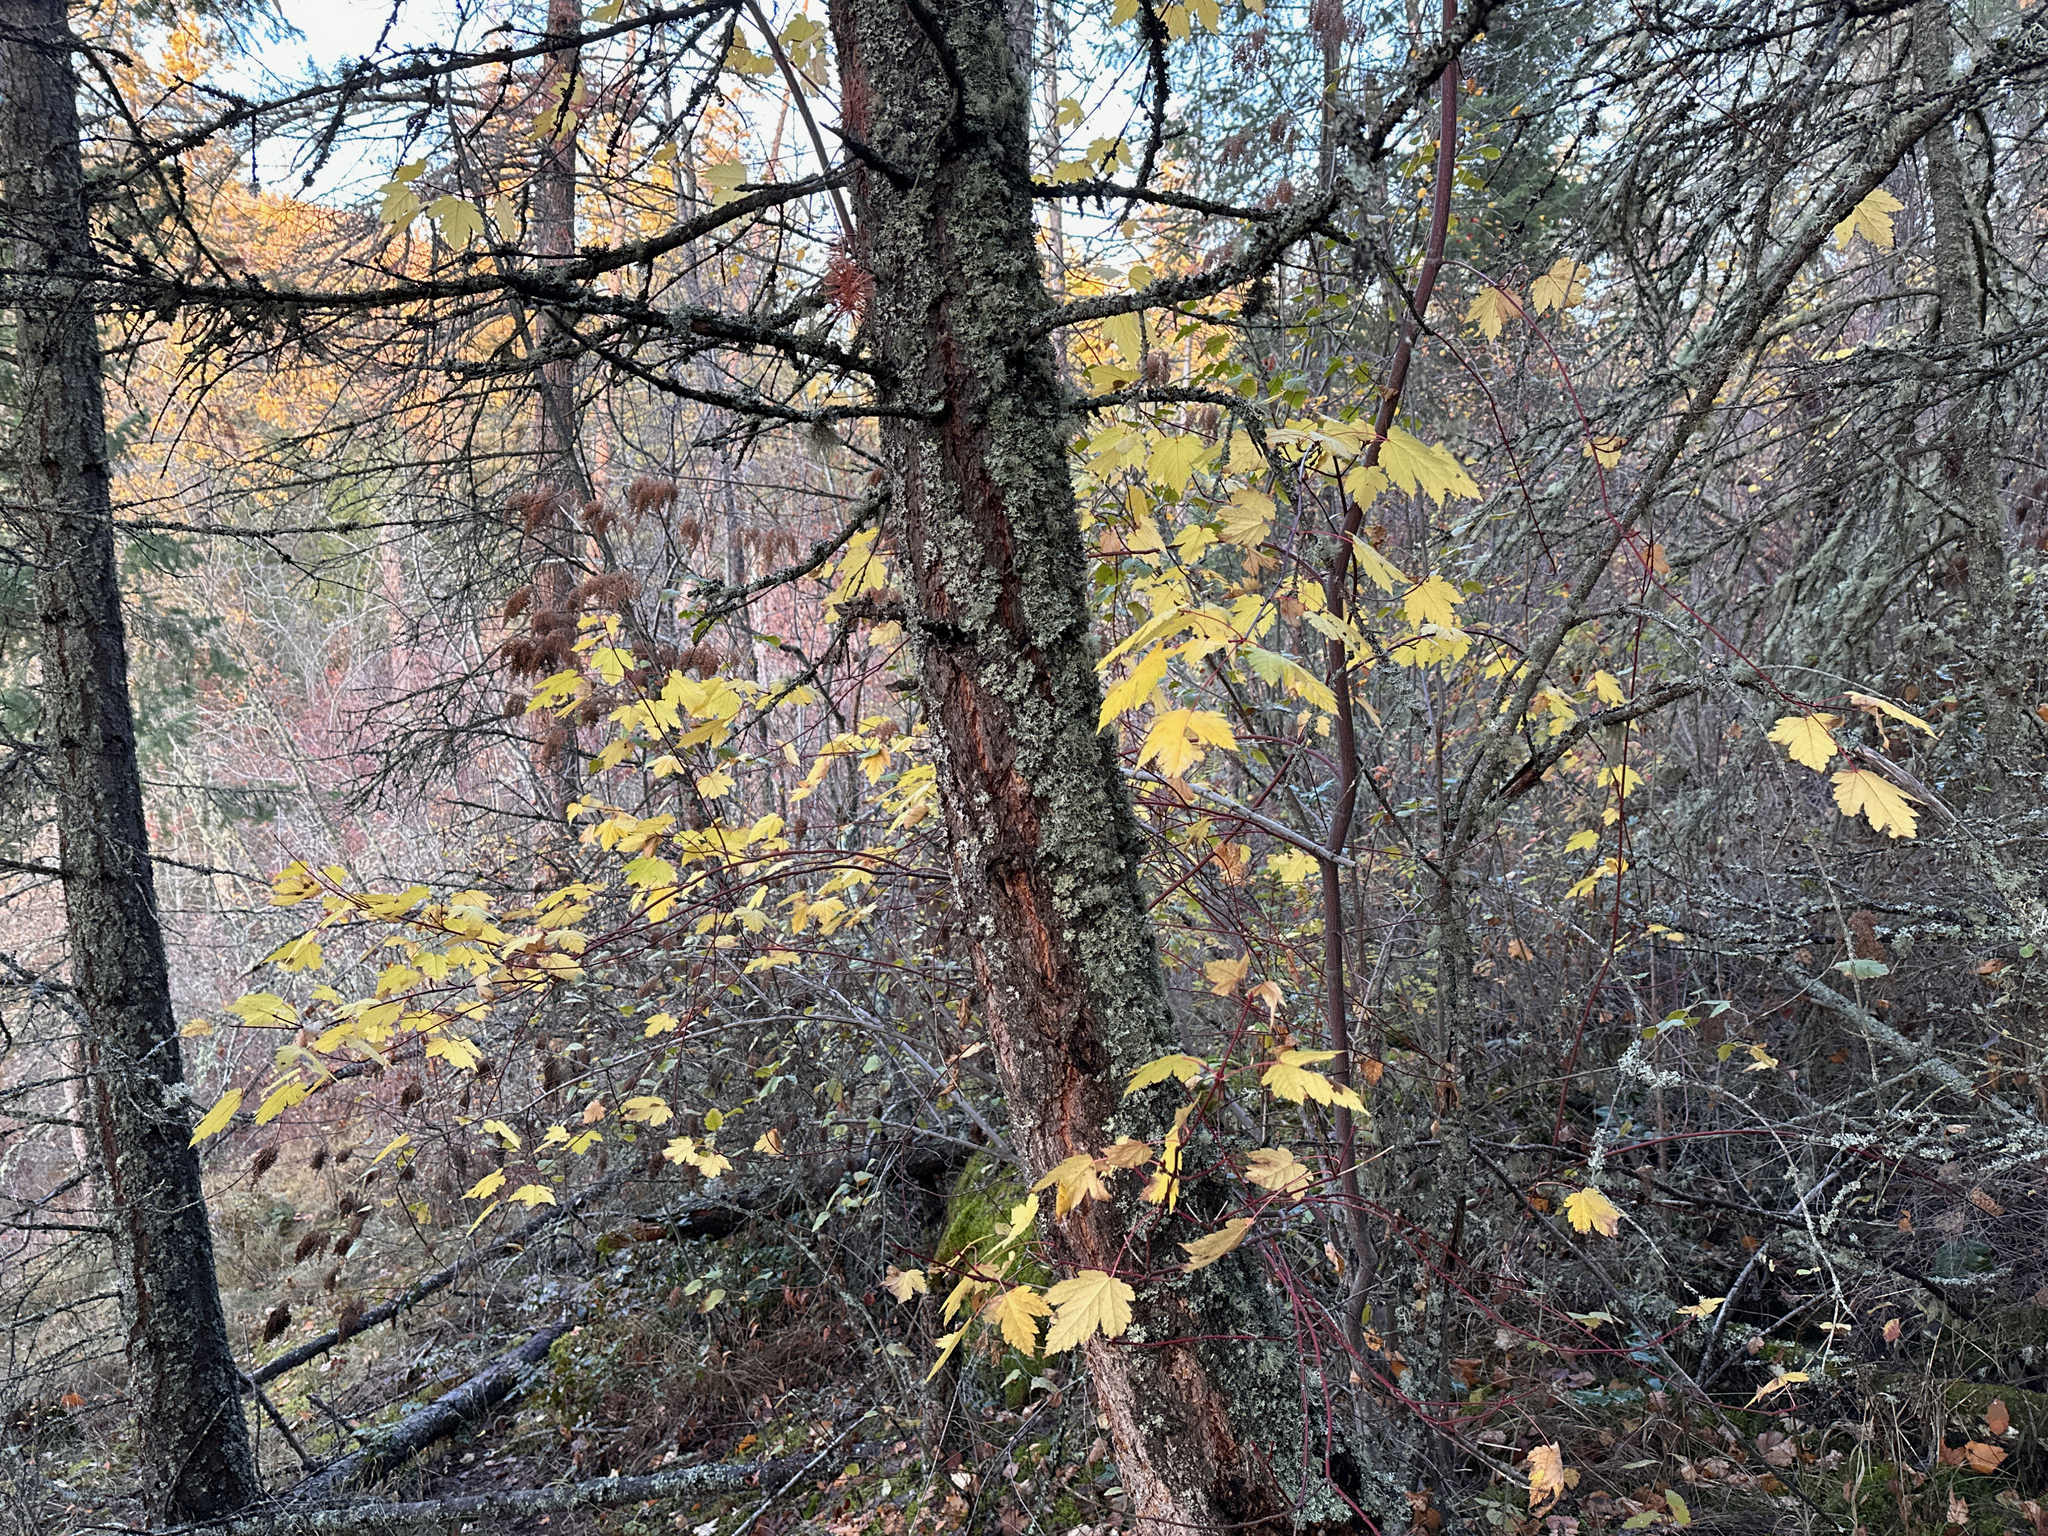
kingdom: Plantae
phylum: Tracheophyta
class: Magnoliopsida
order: Sapindales
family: Sapindaceae
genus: Acer
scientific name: Acer glabrum
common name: Rocky mountain maple
